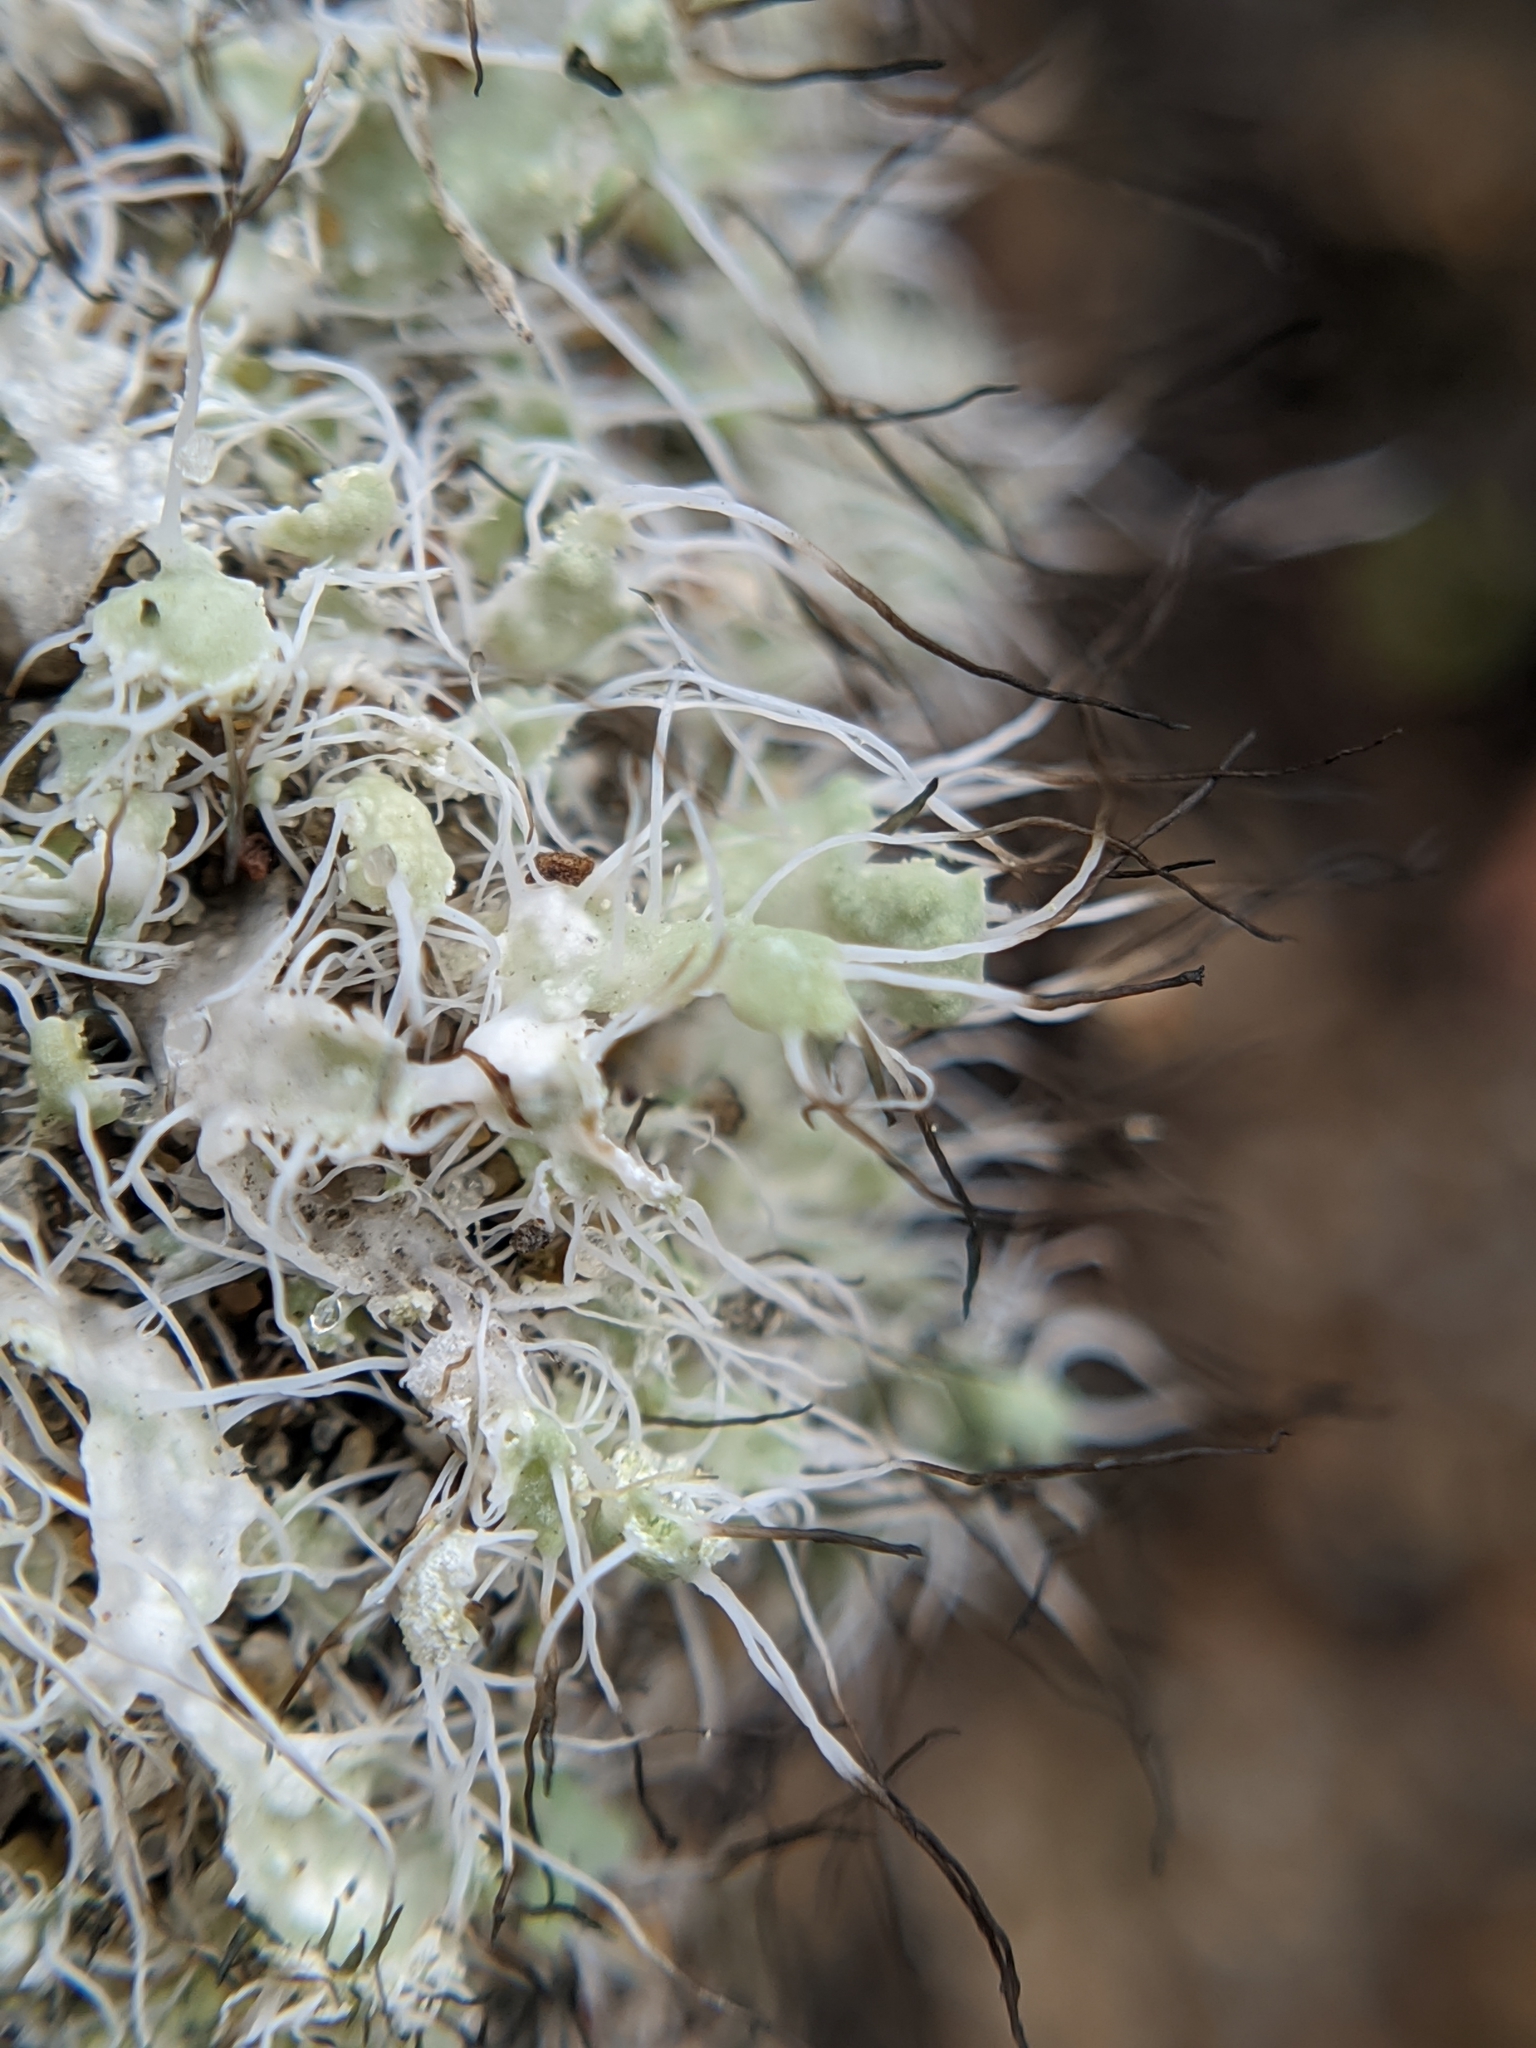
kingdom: Fungi
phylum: Ascomycota
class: Lecanoromycetes
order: Caliciales
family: Physciaceae
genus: Heterodermia
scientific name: Heterodermia namaquana
